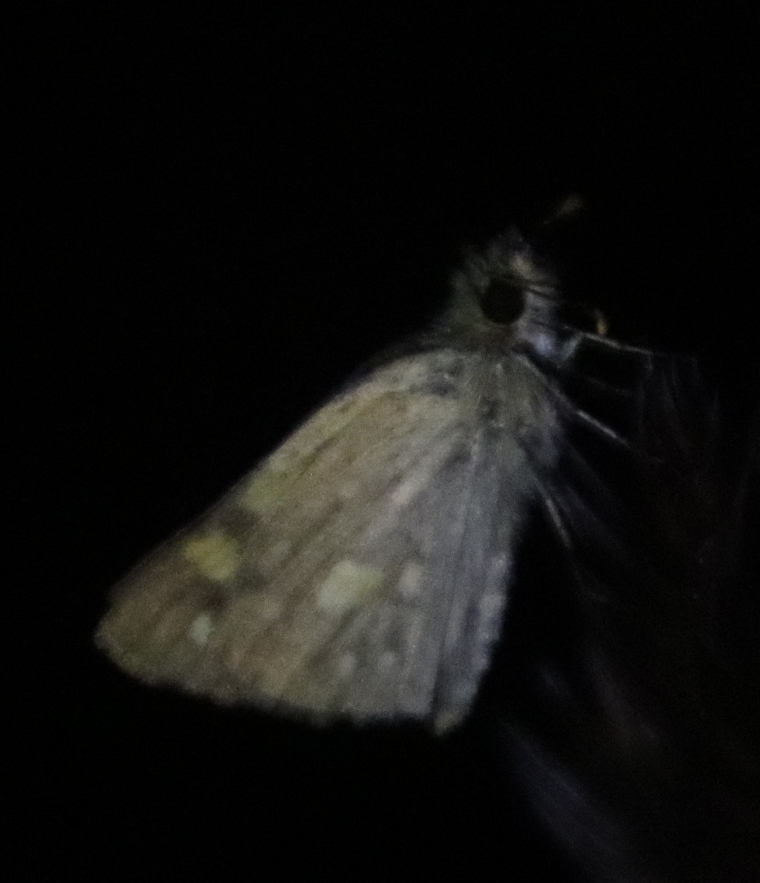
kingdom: Animalia
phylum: Arthropoda
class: Insecta
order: Lepidoptera
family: Hesperiidae
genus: Metisella
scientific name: Metisella malgacha
